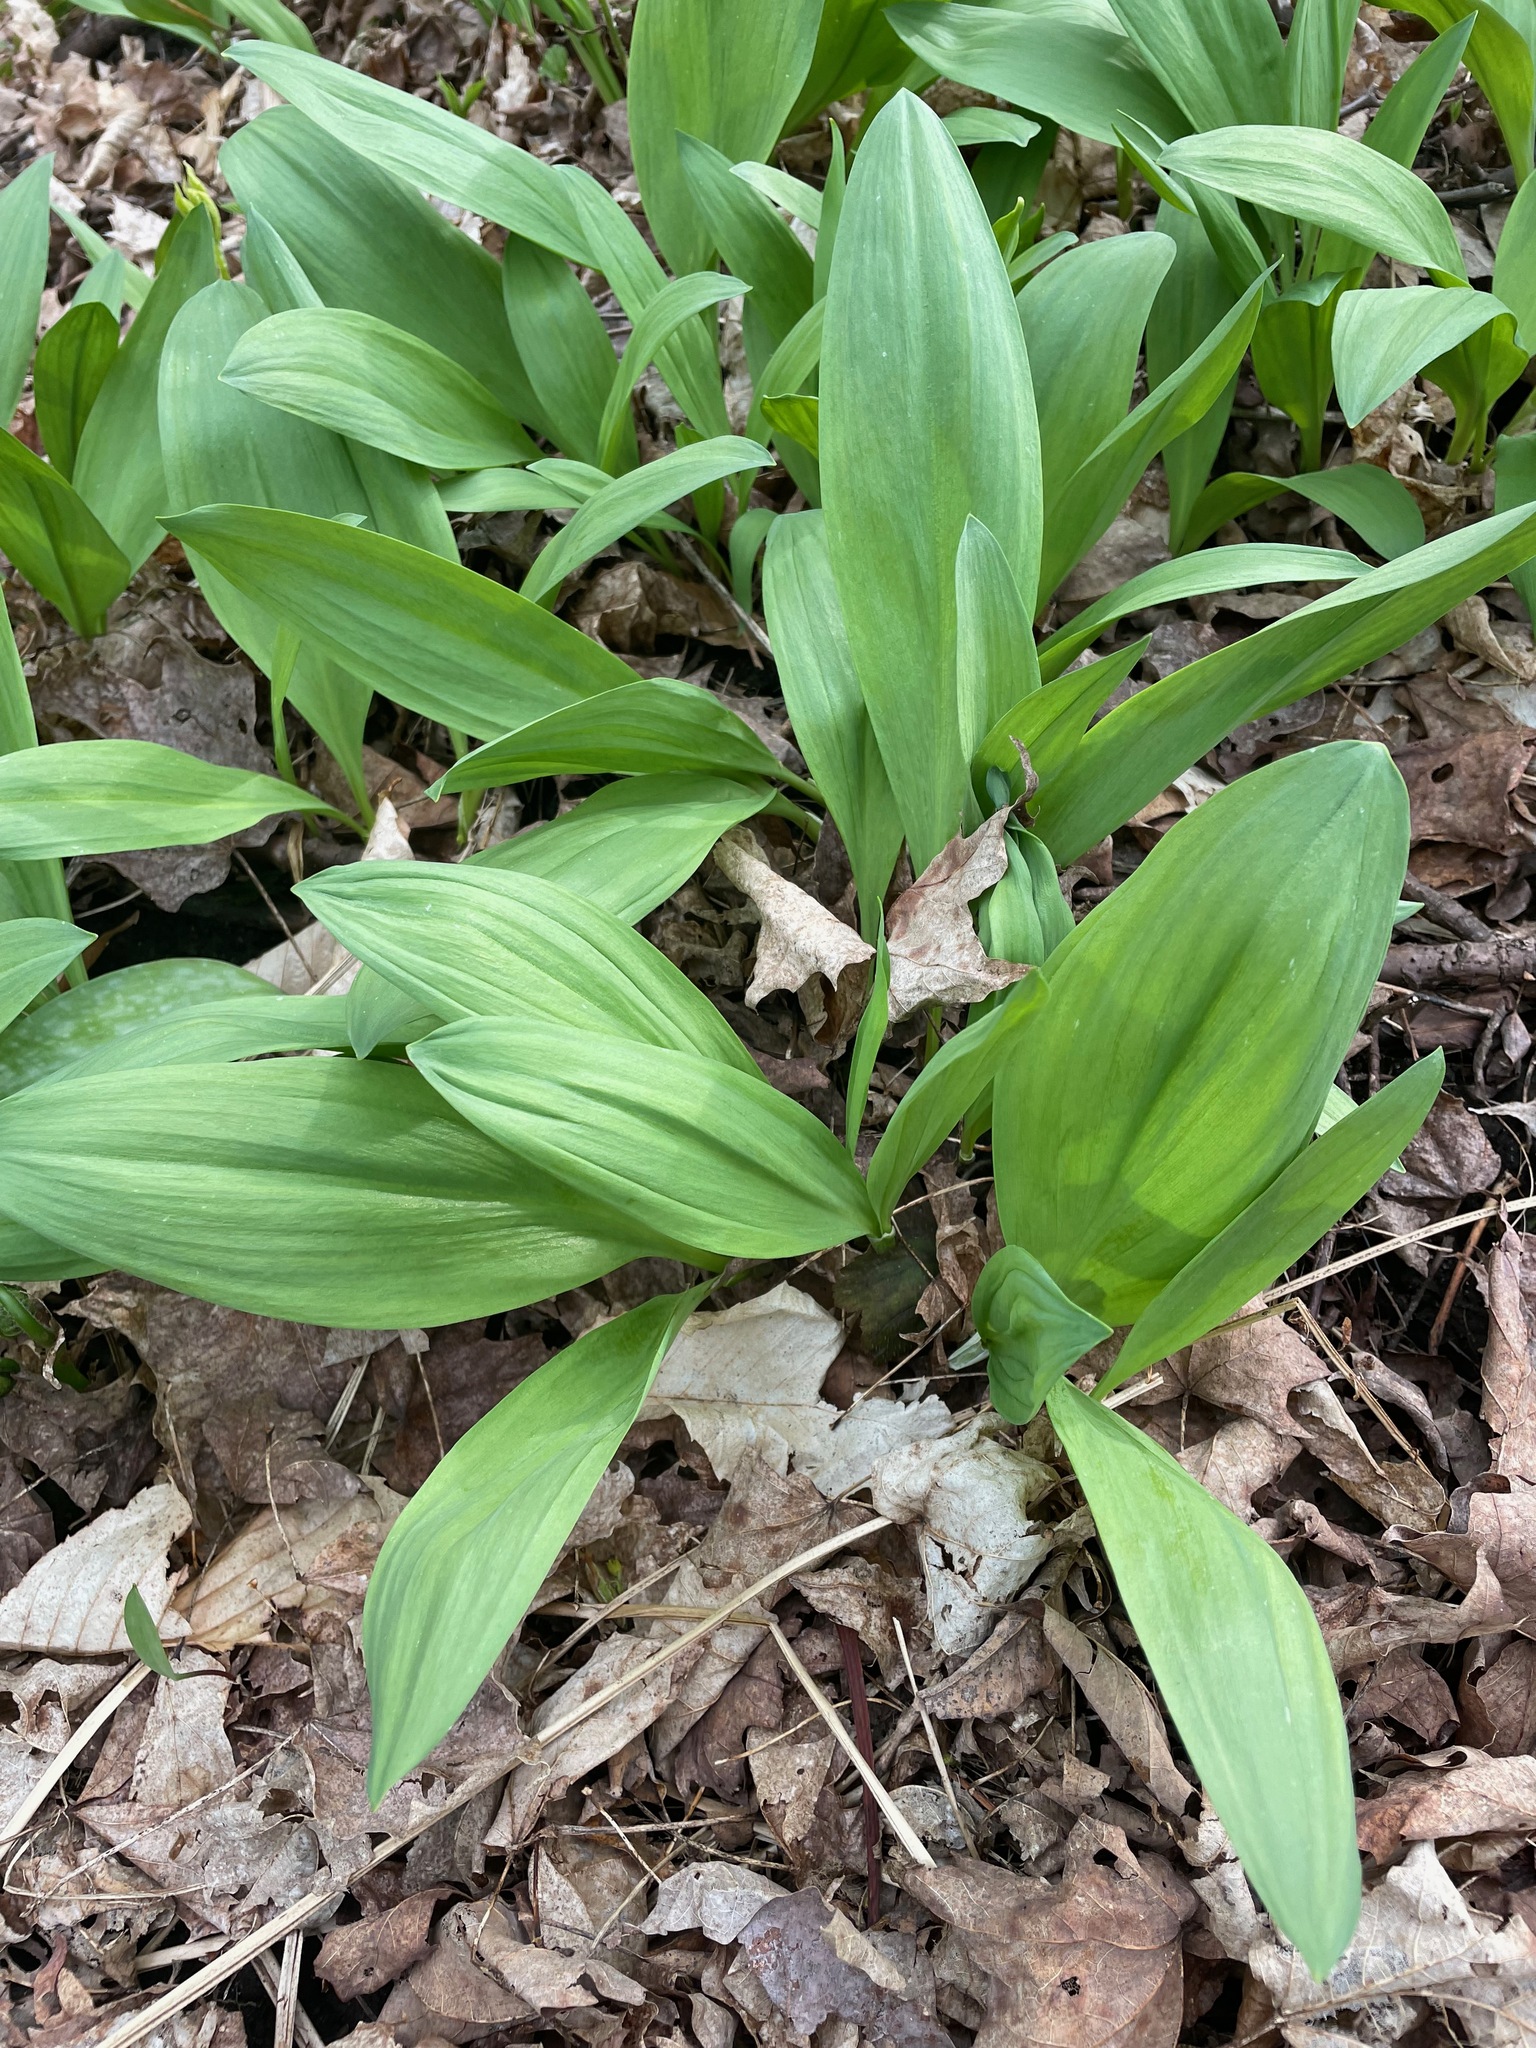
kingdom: Plantae
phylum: Tracheophyta
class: Liliopsida
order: Asparagales
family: Amaryllidaceae
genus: Allium
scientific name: Allium tricoccum
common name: Ramp
